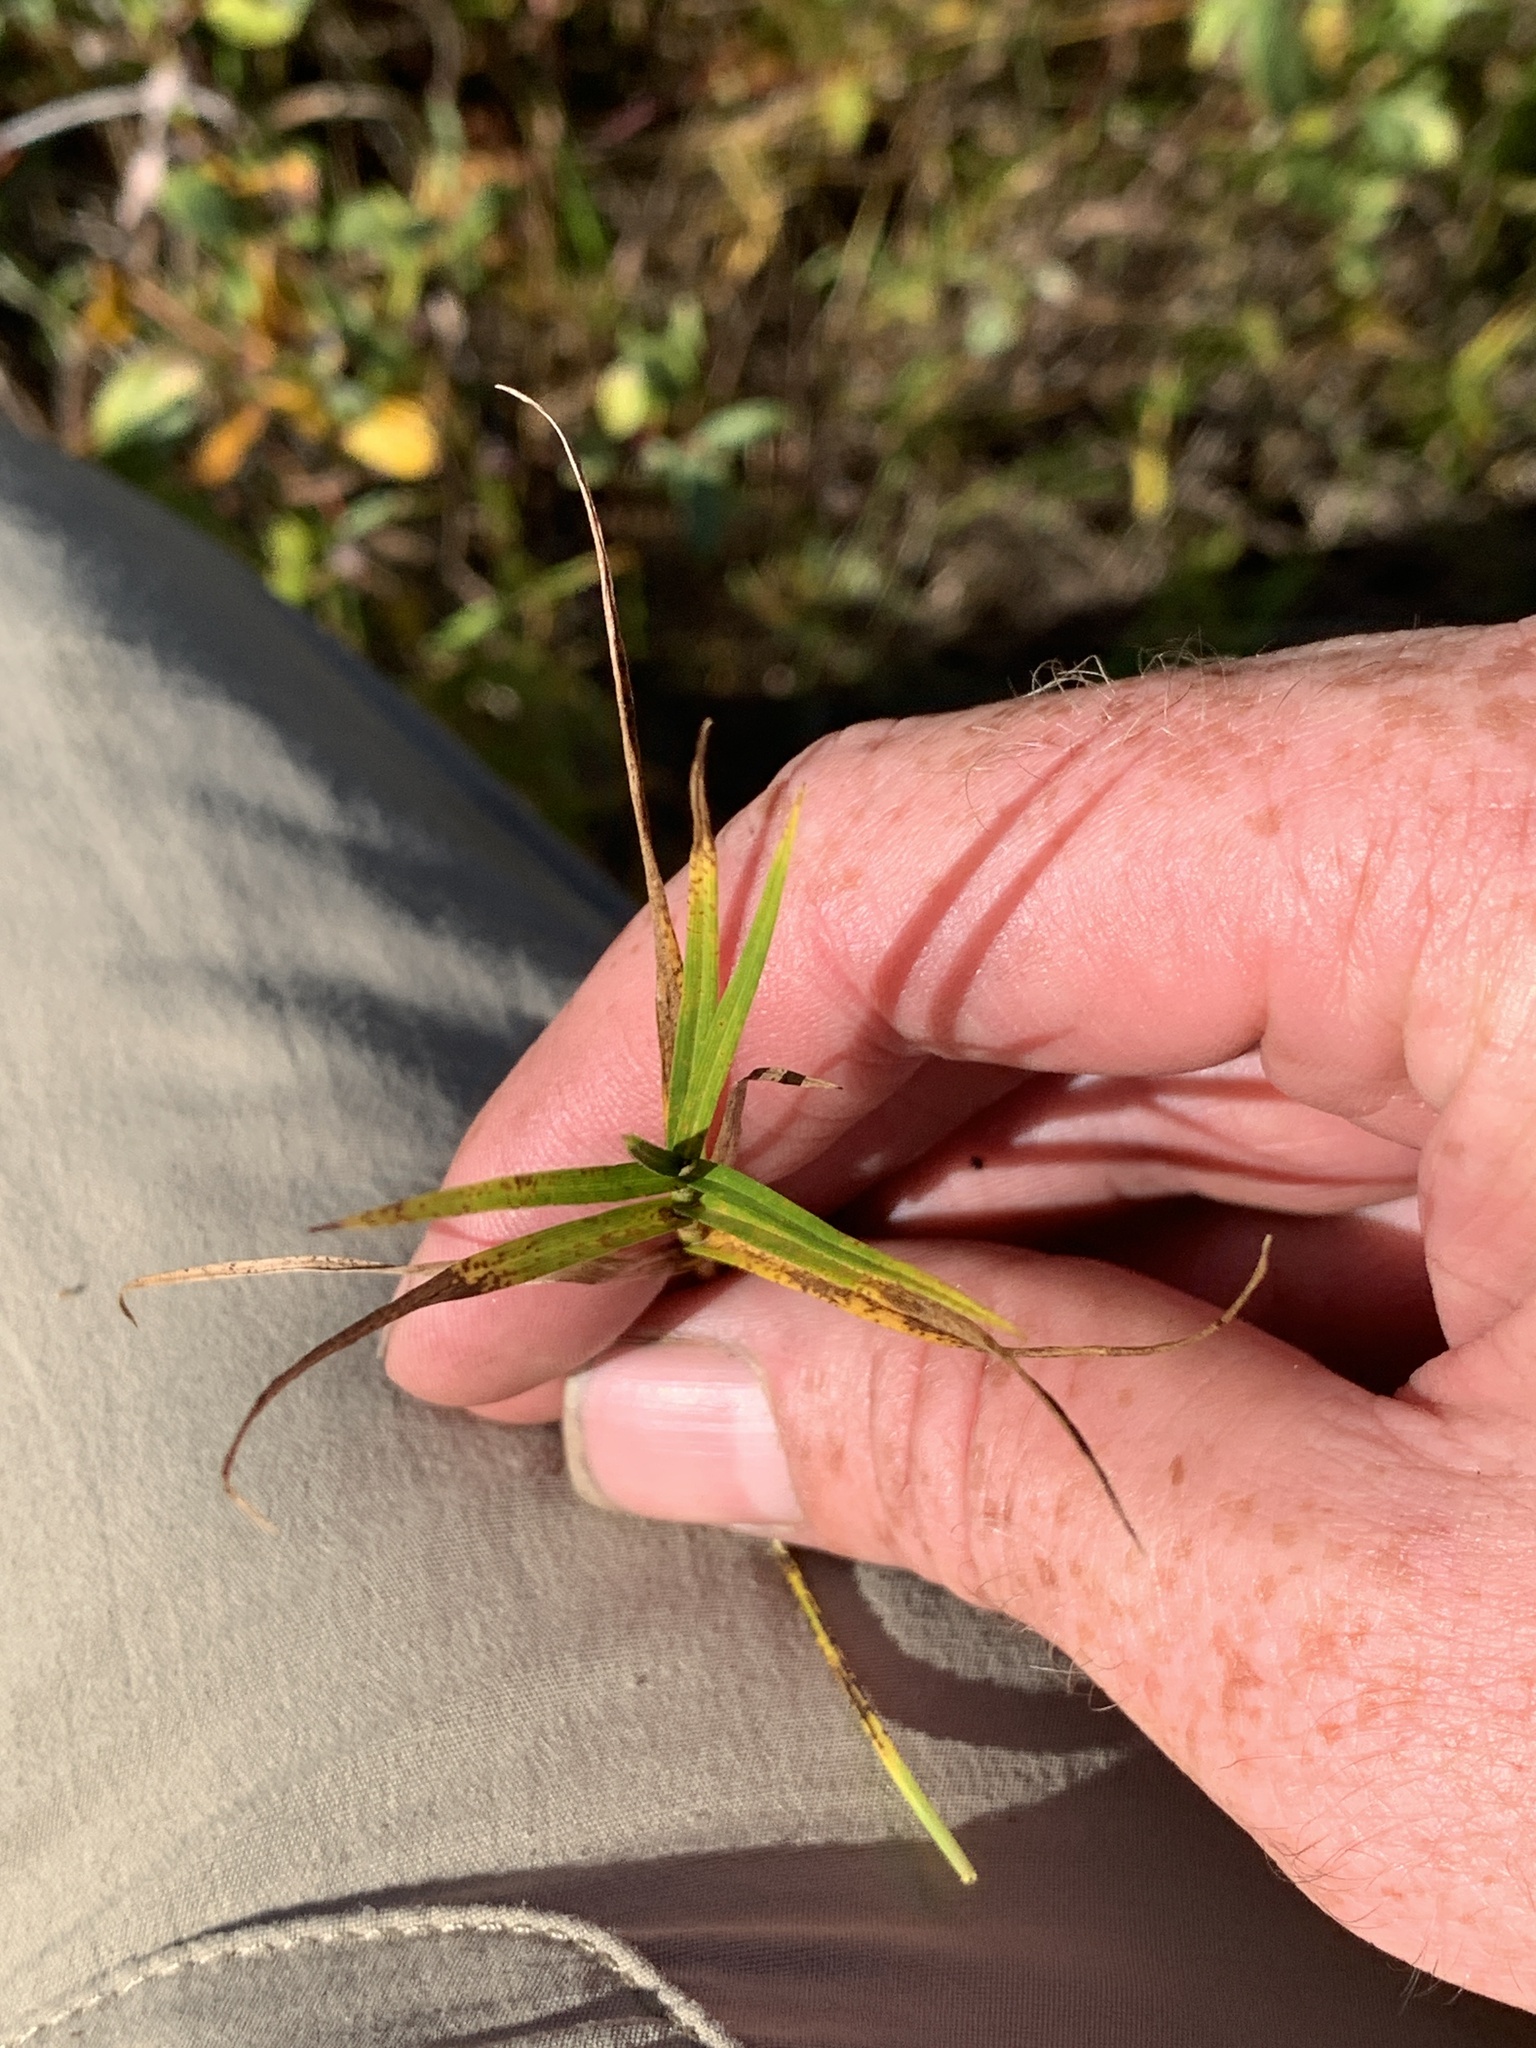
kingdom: Plantae
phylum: Tracheophyta
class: Liliopsida
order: Poales
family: Cyperaceae
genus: Dulichium
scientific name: Dulichium arundinaceum
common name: Three-way sedge
